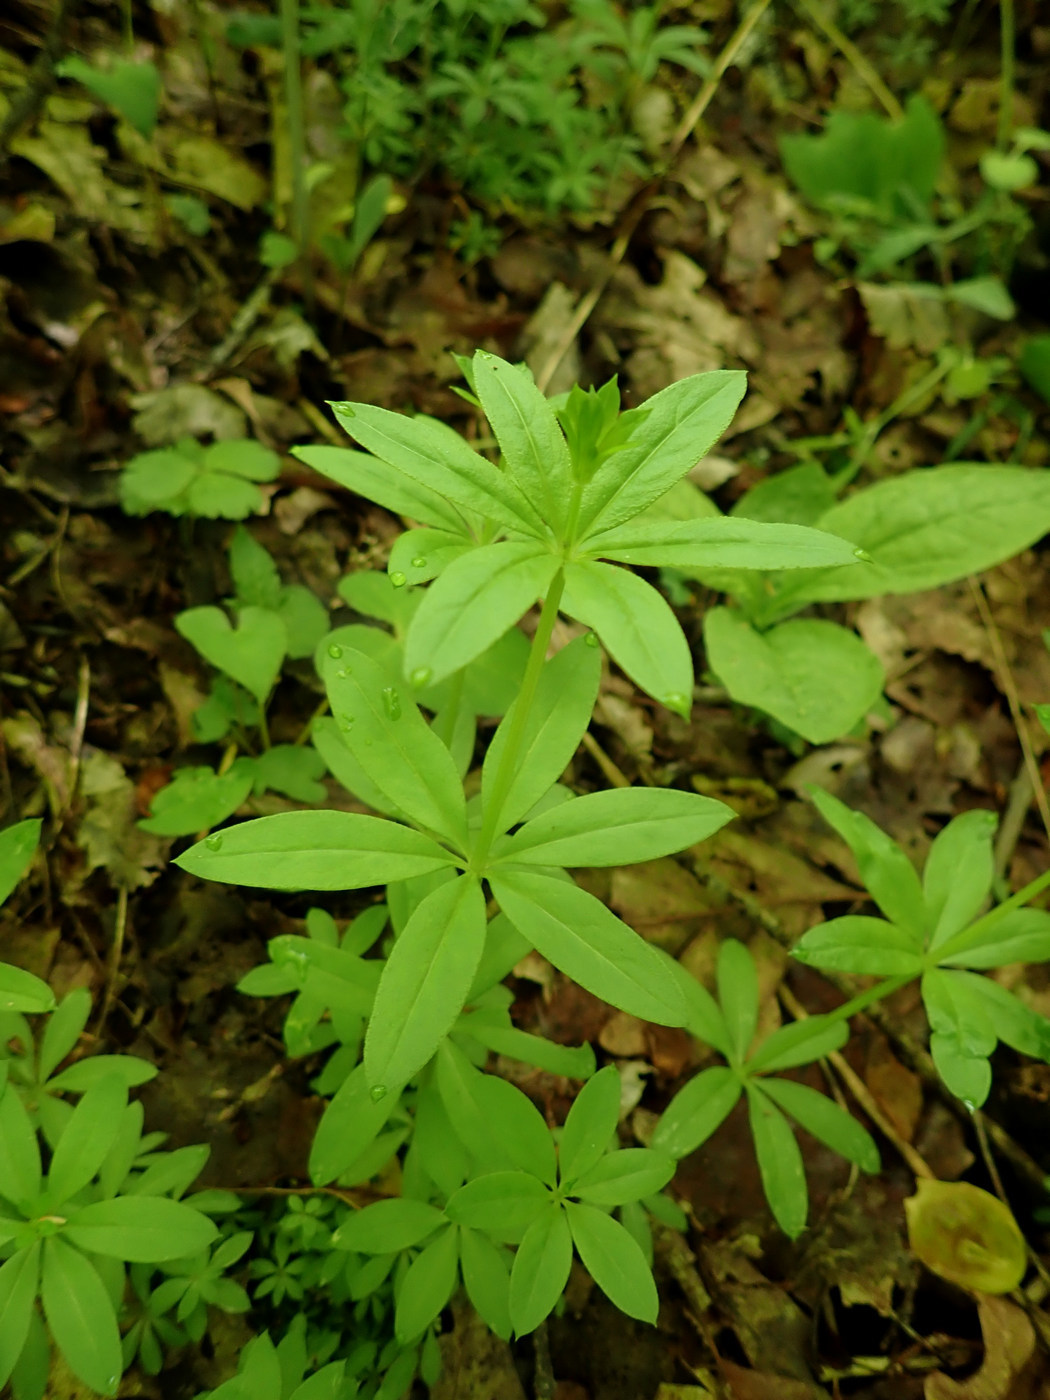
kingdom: Plantae
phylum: Tracheophyta
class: Magnoliopsida
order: Gentianales
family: Rubiaceae
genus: Galium
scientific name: Galium triflorum
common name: Fragrant bedstraw
